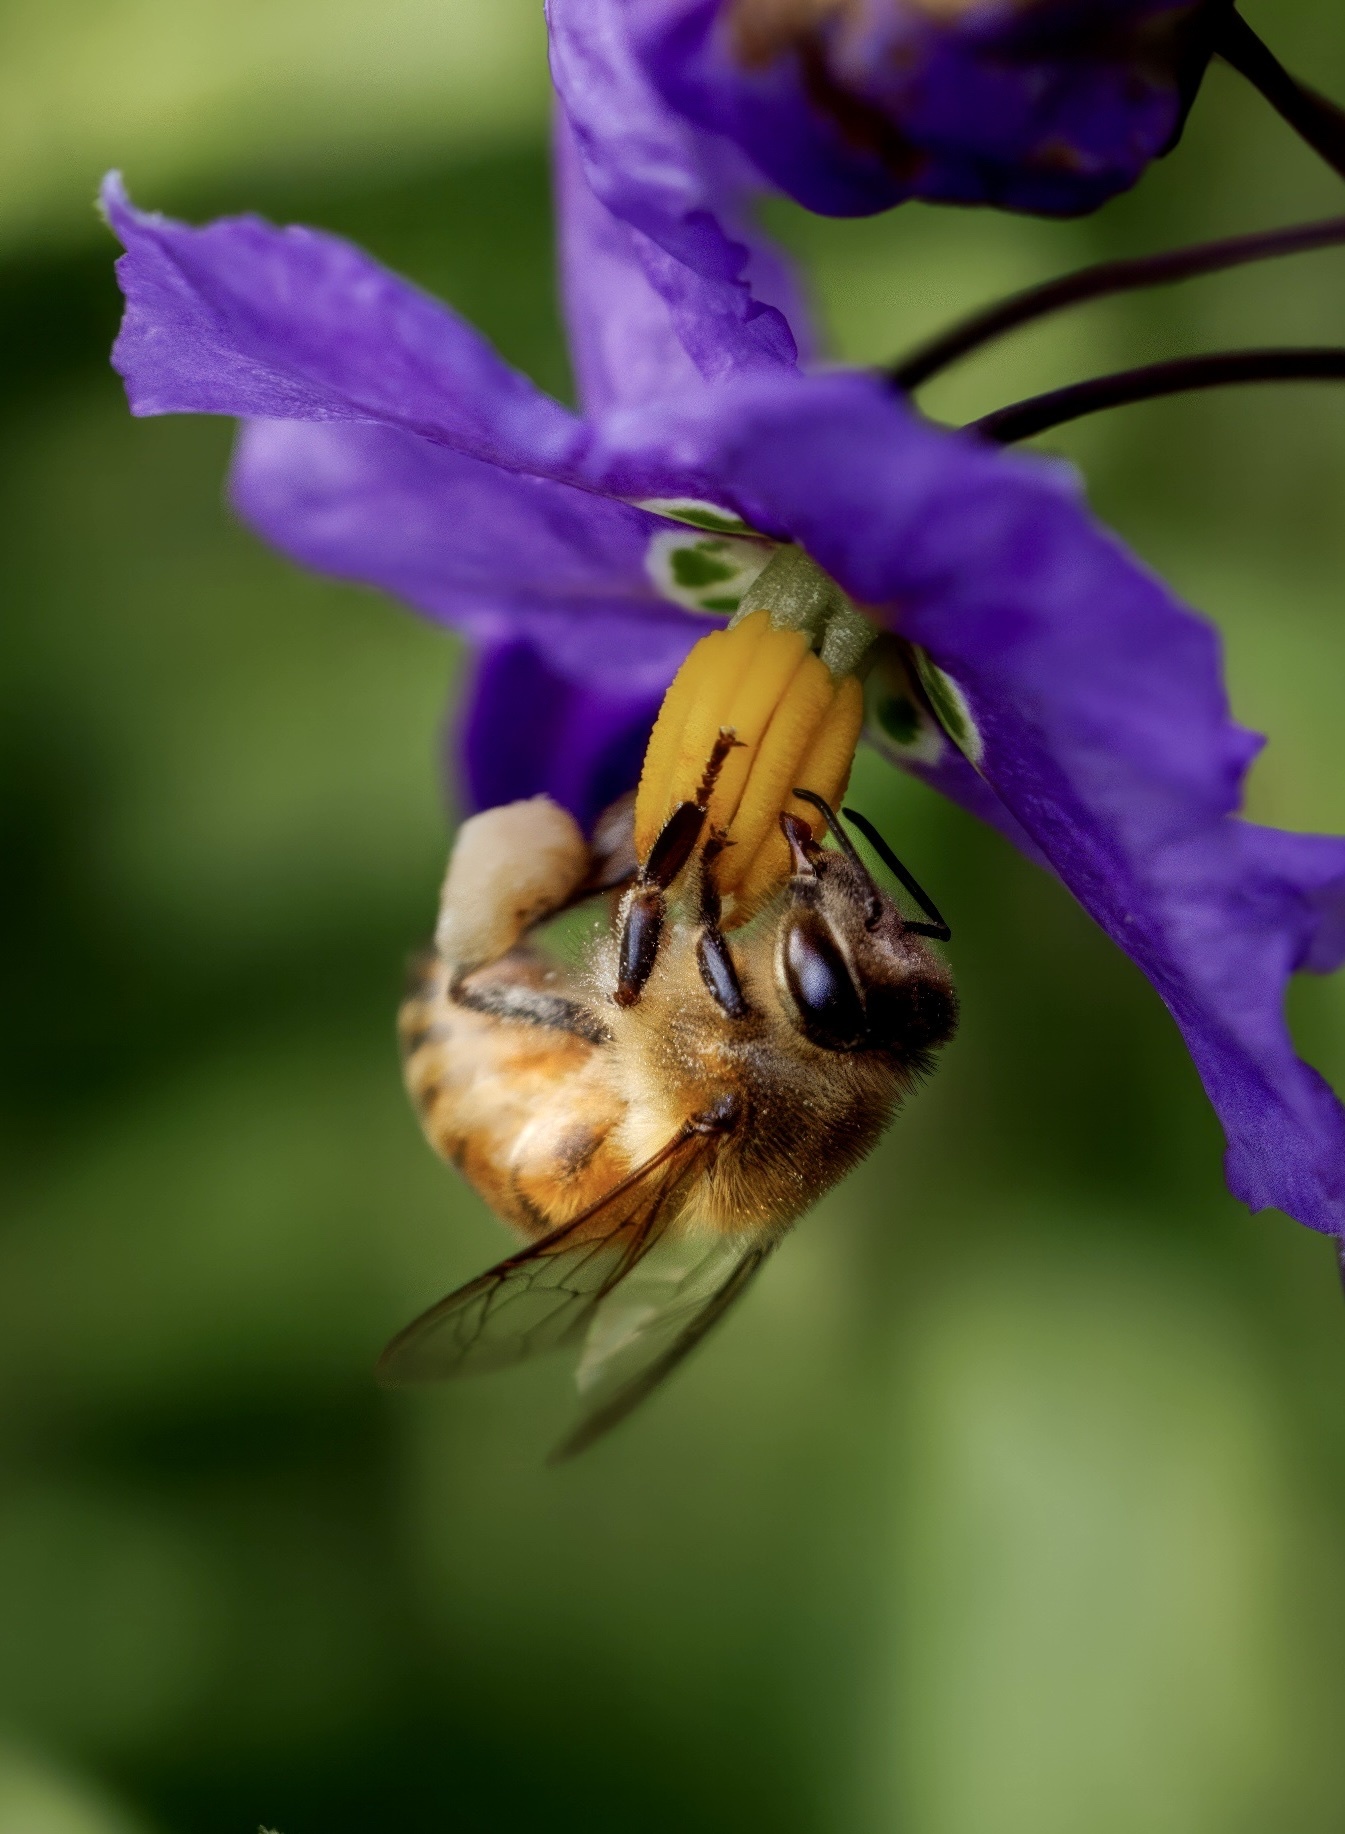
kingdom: Animalia
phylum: Arthropoda
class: Insecta
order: Hymenoptera
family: Apidae
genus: Apis
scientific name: Apis mellifera
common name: Honey bee
